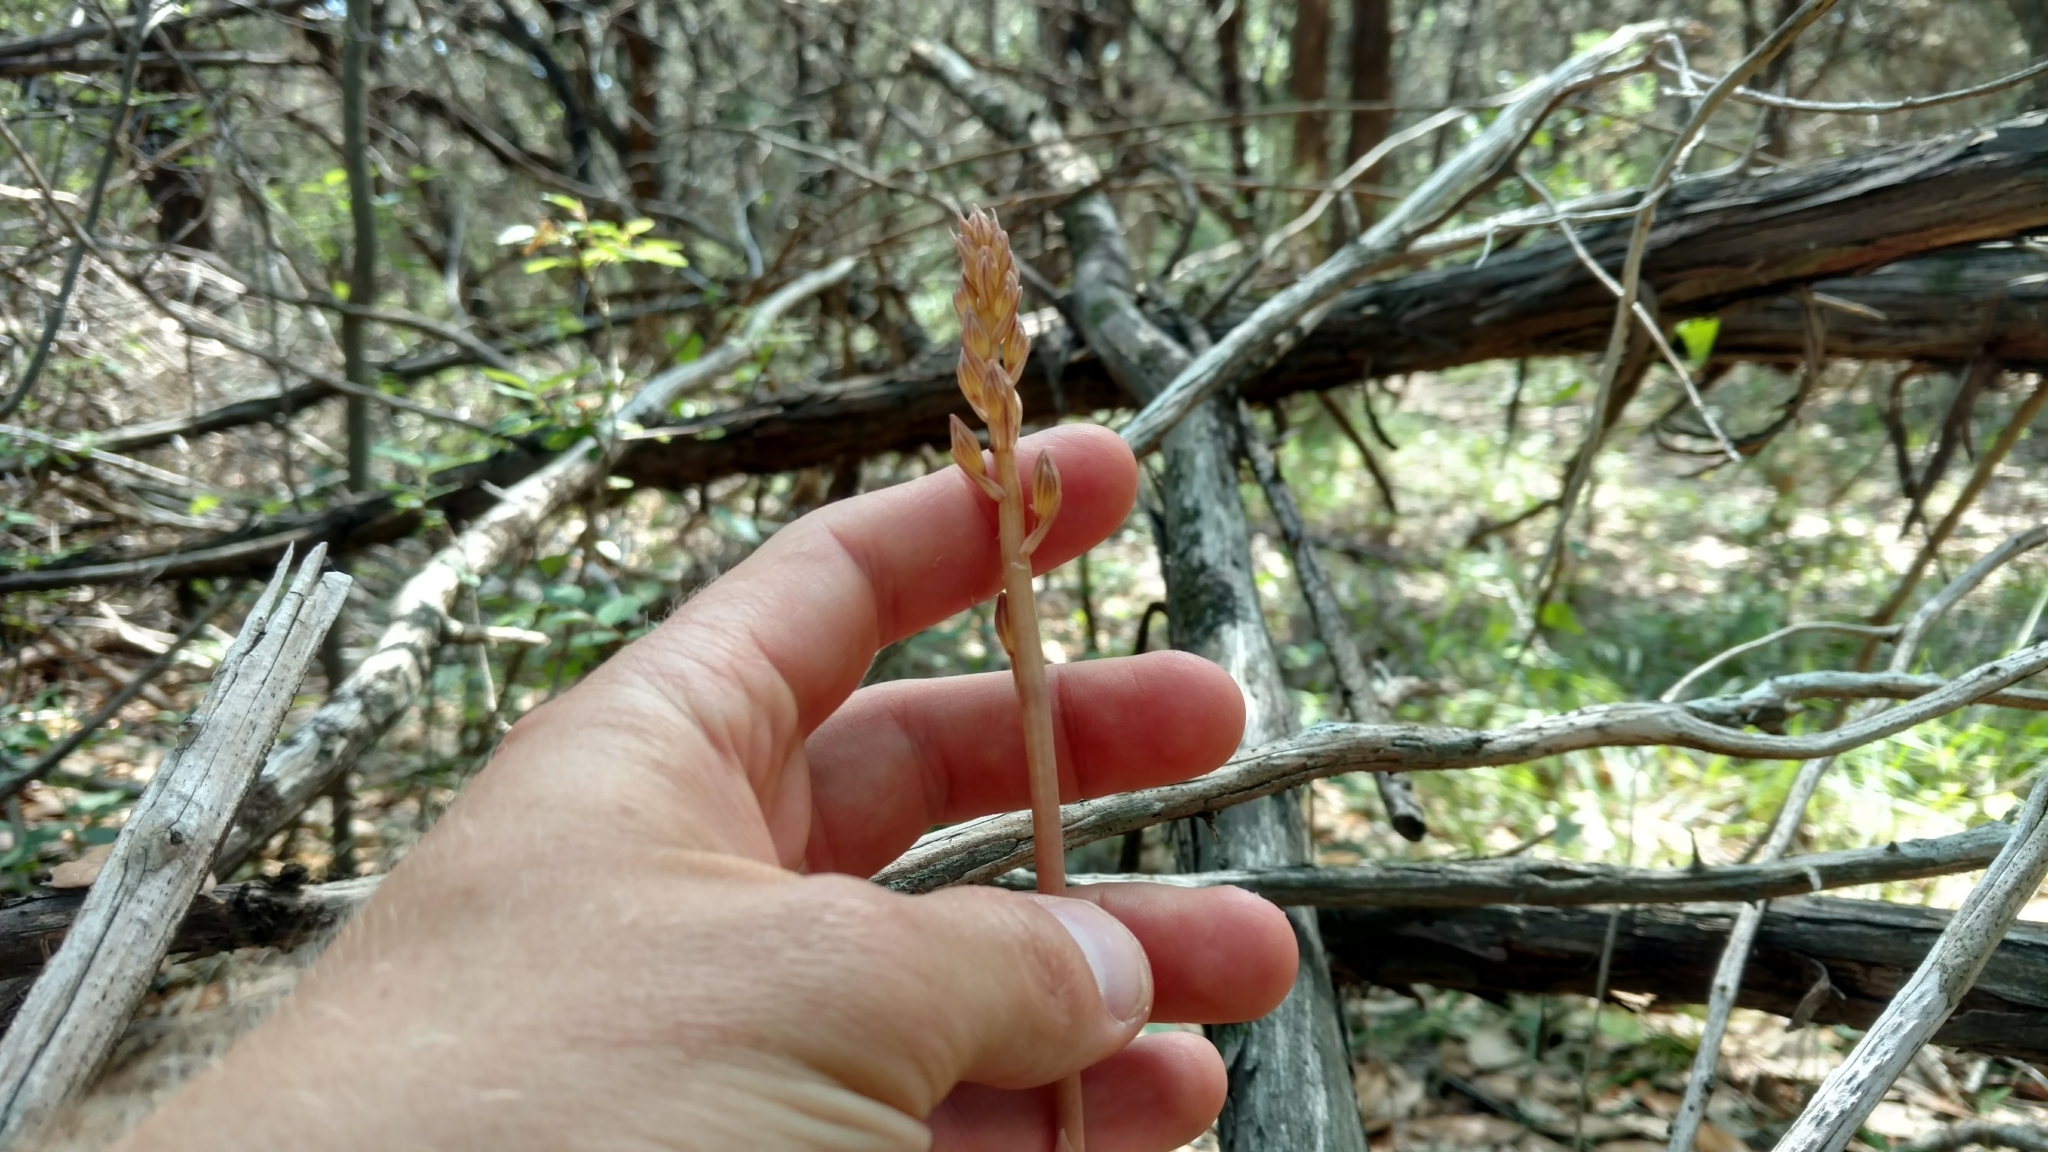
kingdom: Plantae
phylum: Tracheophyta
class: Liliopsida
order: Asparagales
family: Orchidaceae
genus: Bletia
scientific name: Bletia spicata
